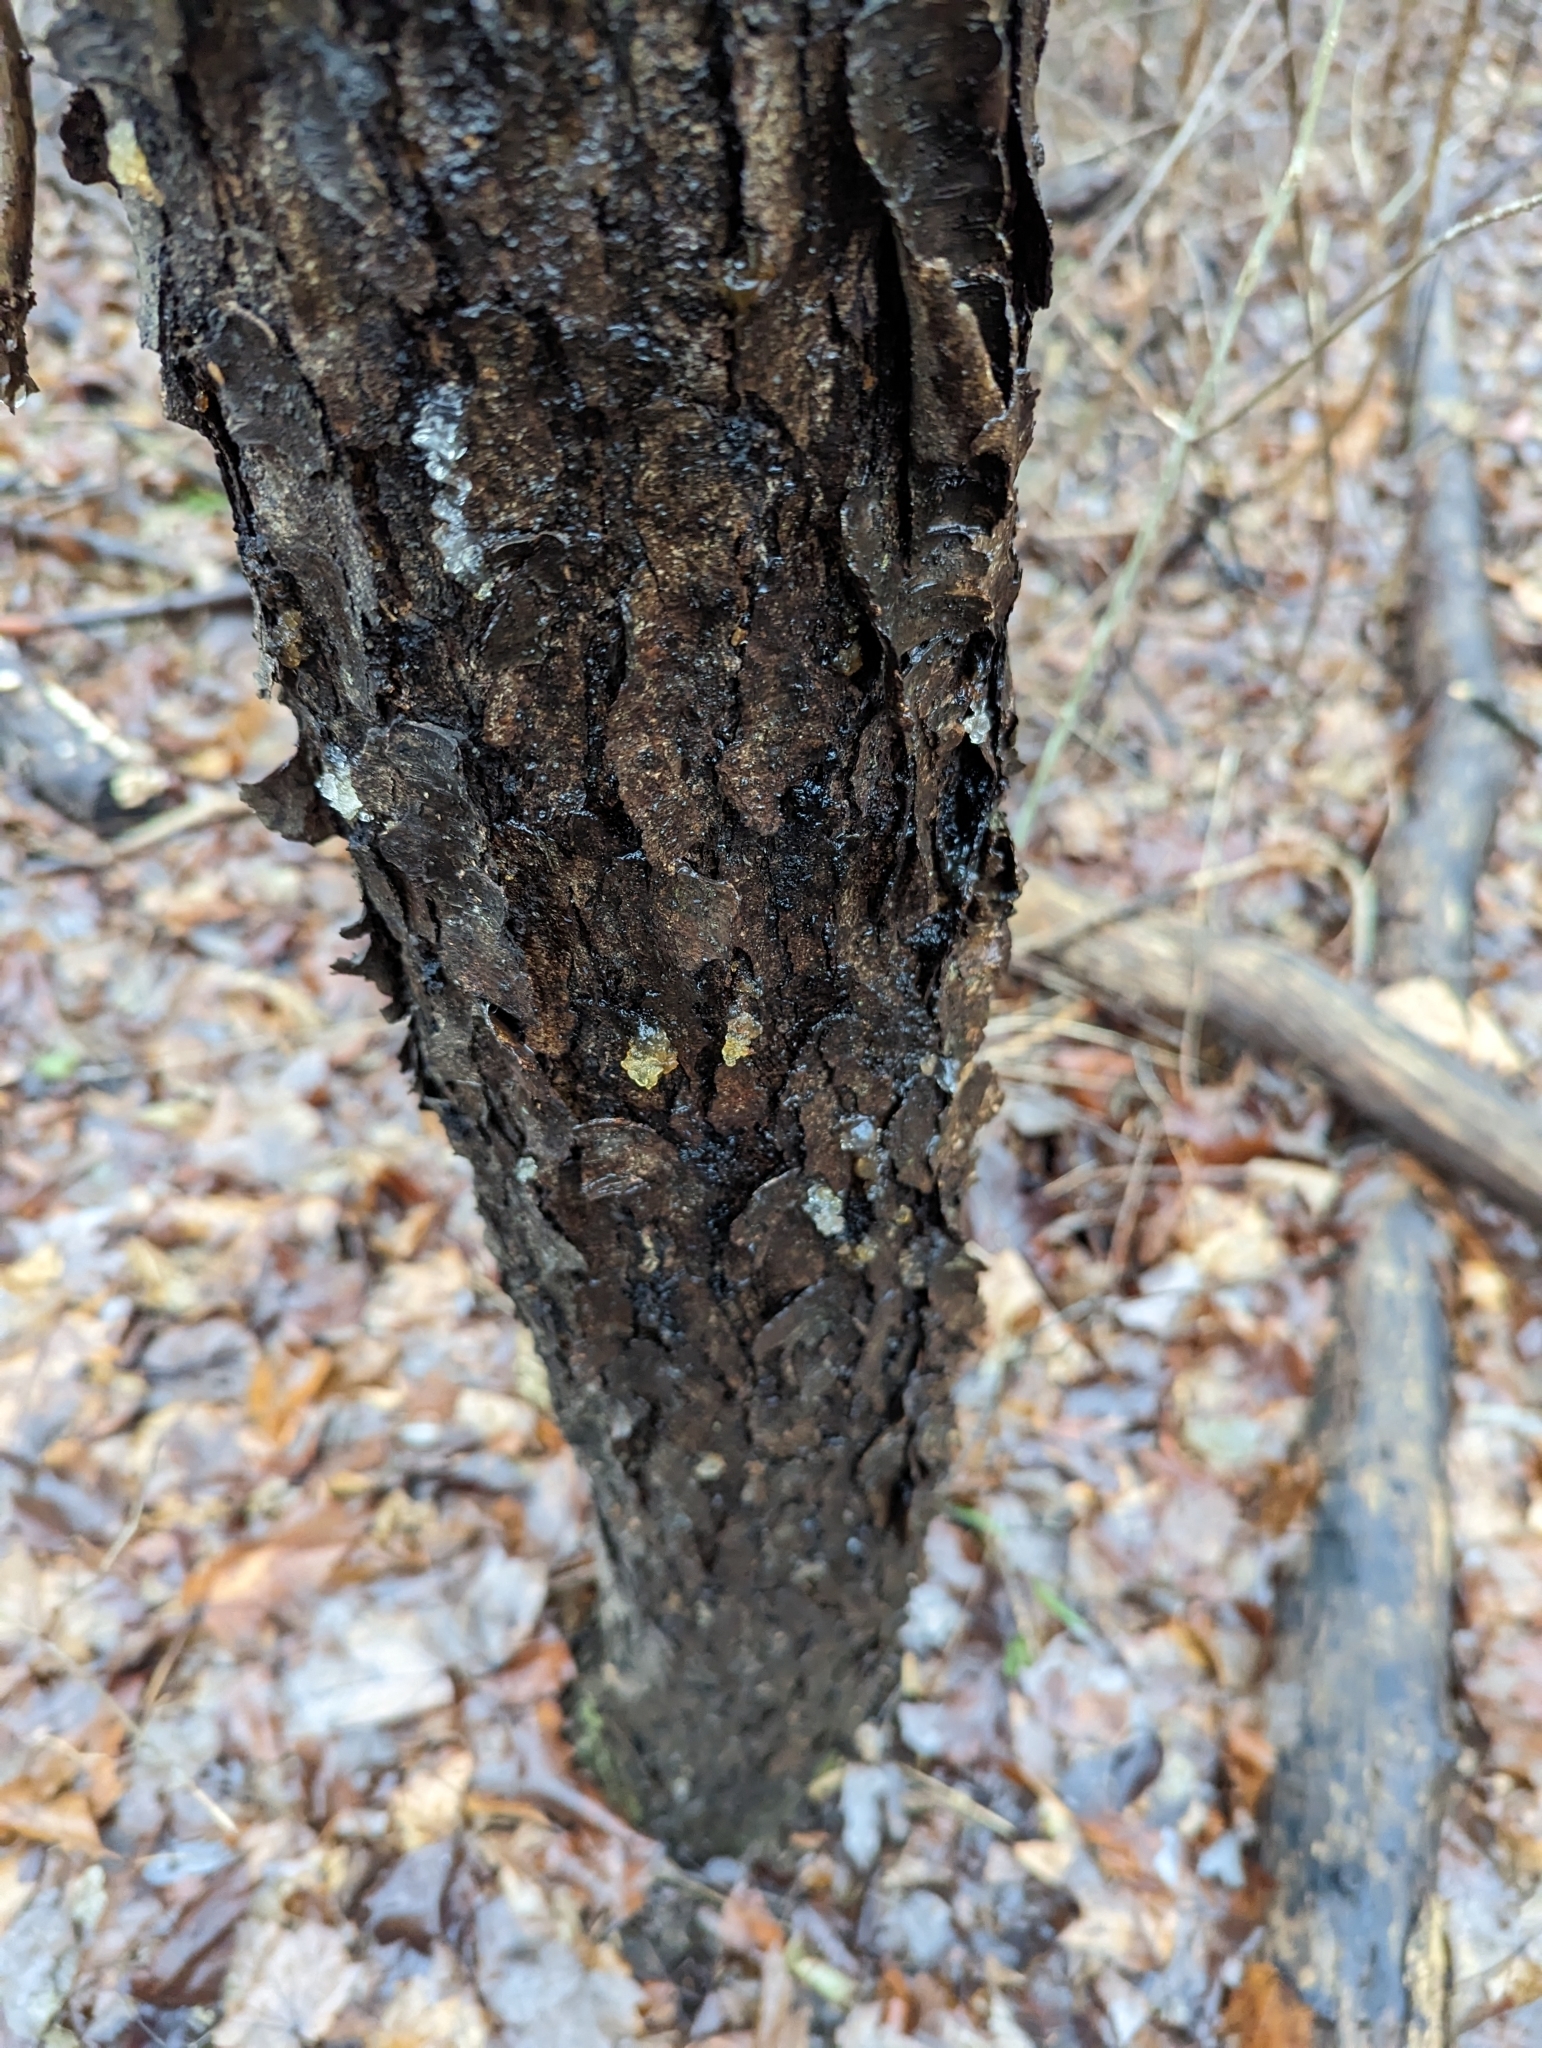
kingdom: Plantae
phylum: Tracheophyta
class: Magnoliopsida
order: Rosales
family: Rosaceae
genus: Prunus
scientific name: Prunus serotina
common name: Black cherry
